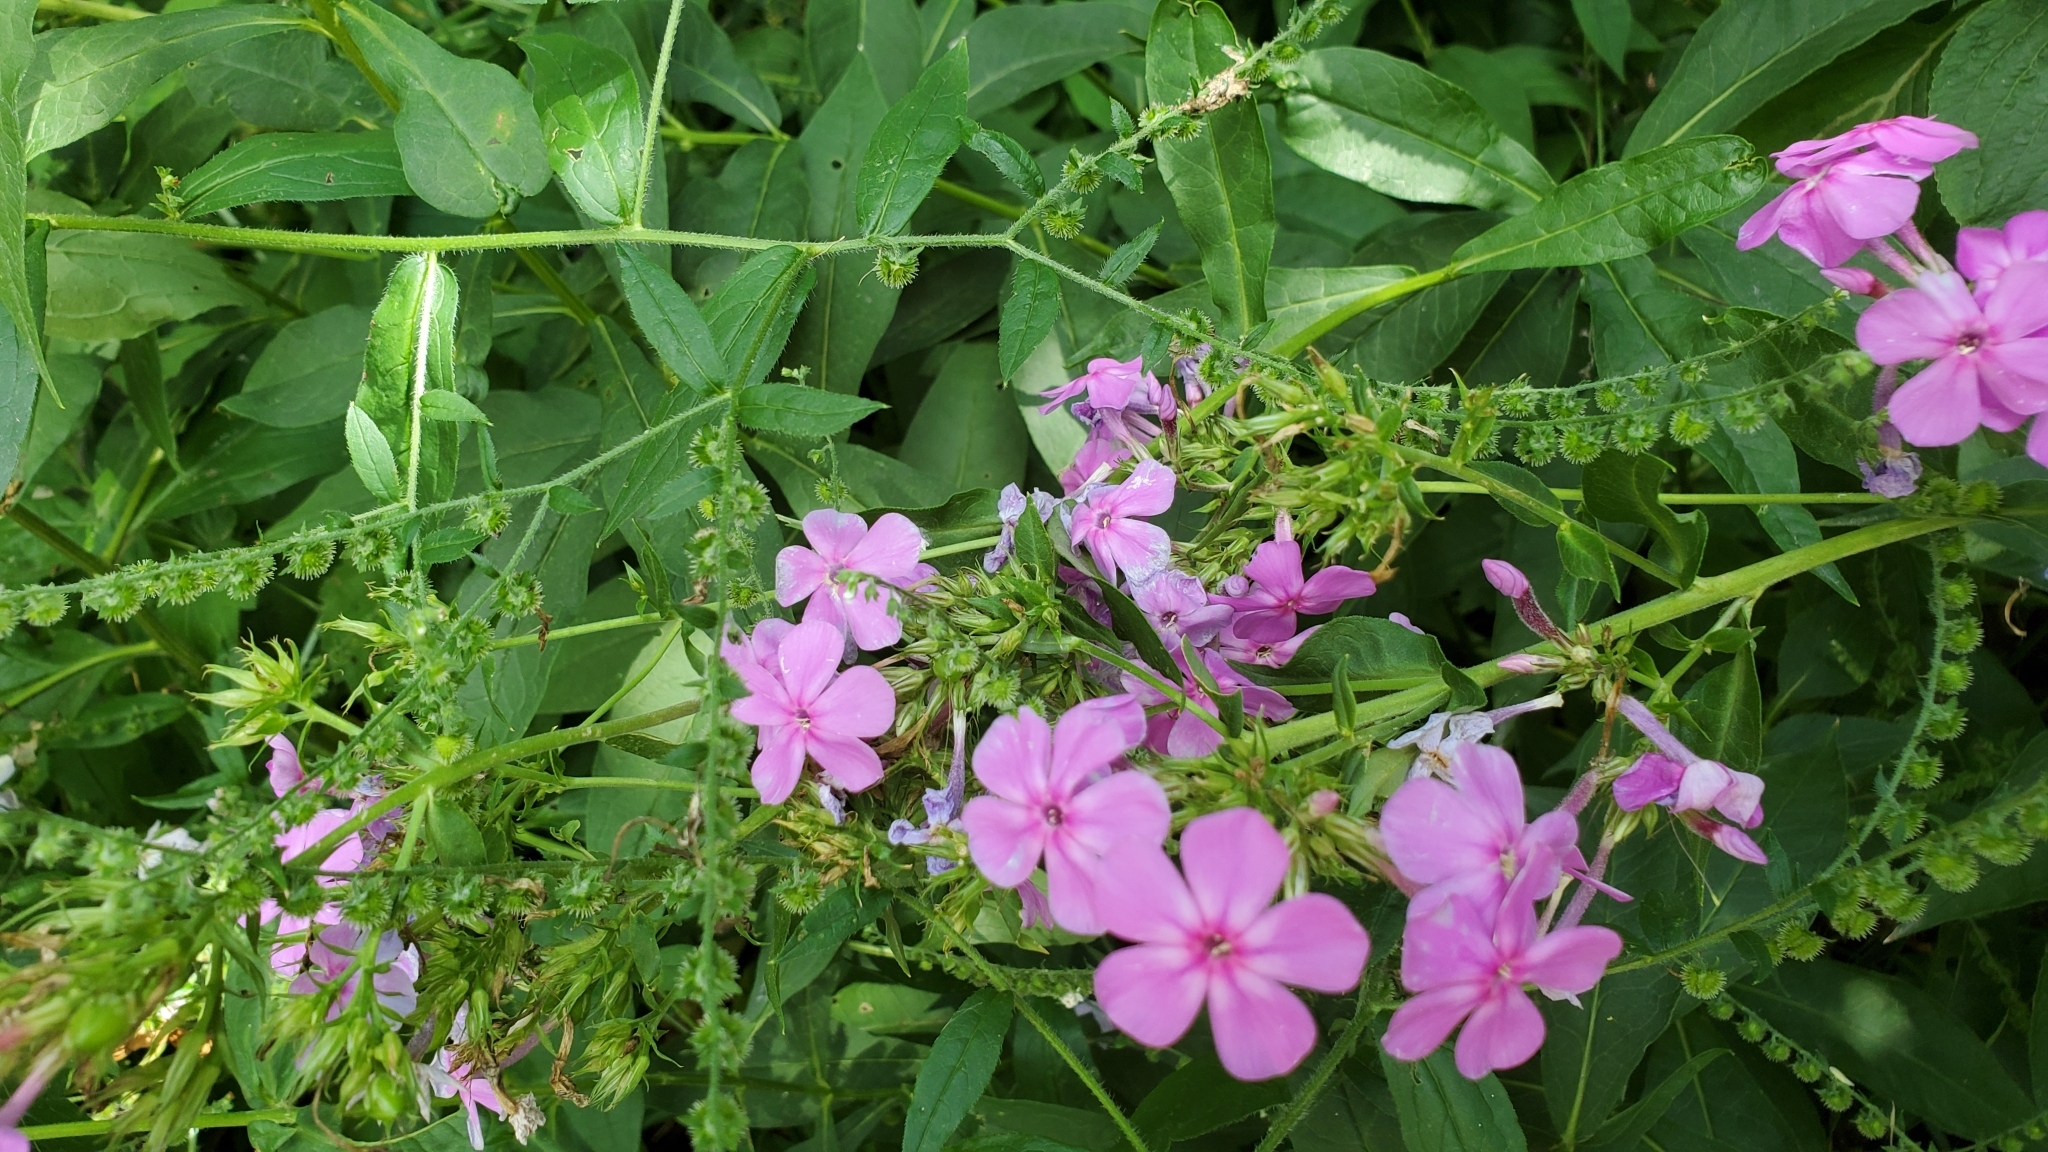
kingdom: Plantae
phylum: Tracheophyta
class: Magnoliopsida
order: Ericales
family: Polemoniaceae
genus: Phlox
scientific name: Phlox paniculata
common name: Fall phlox
